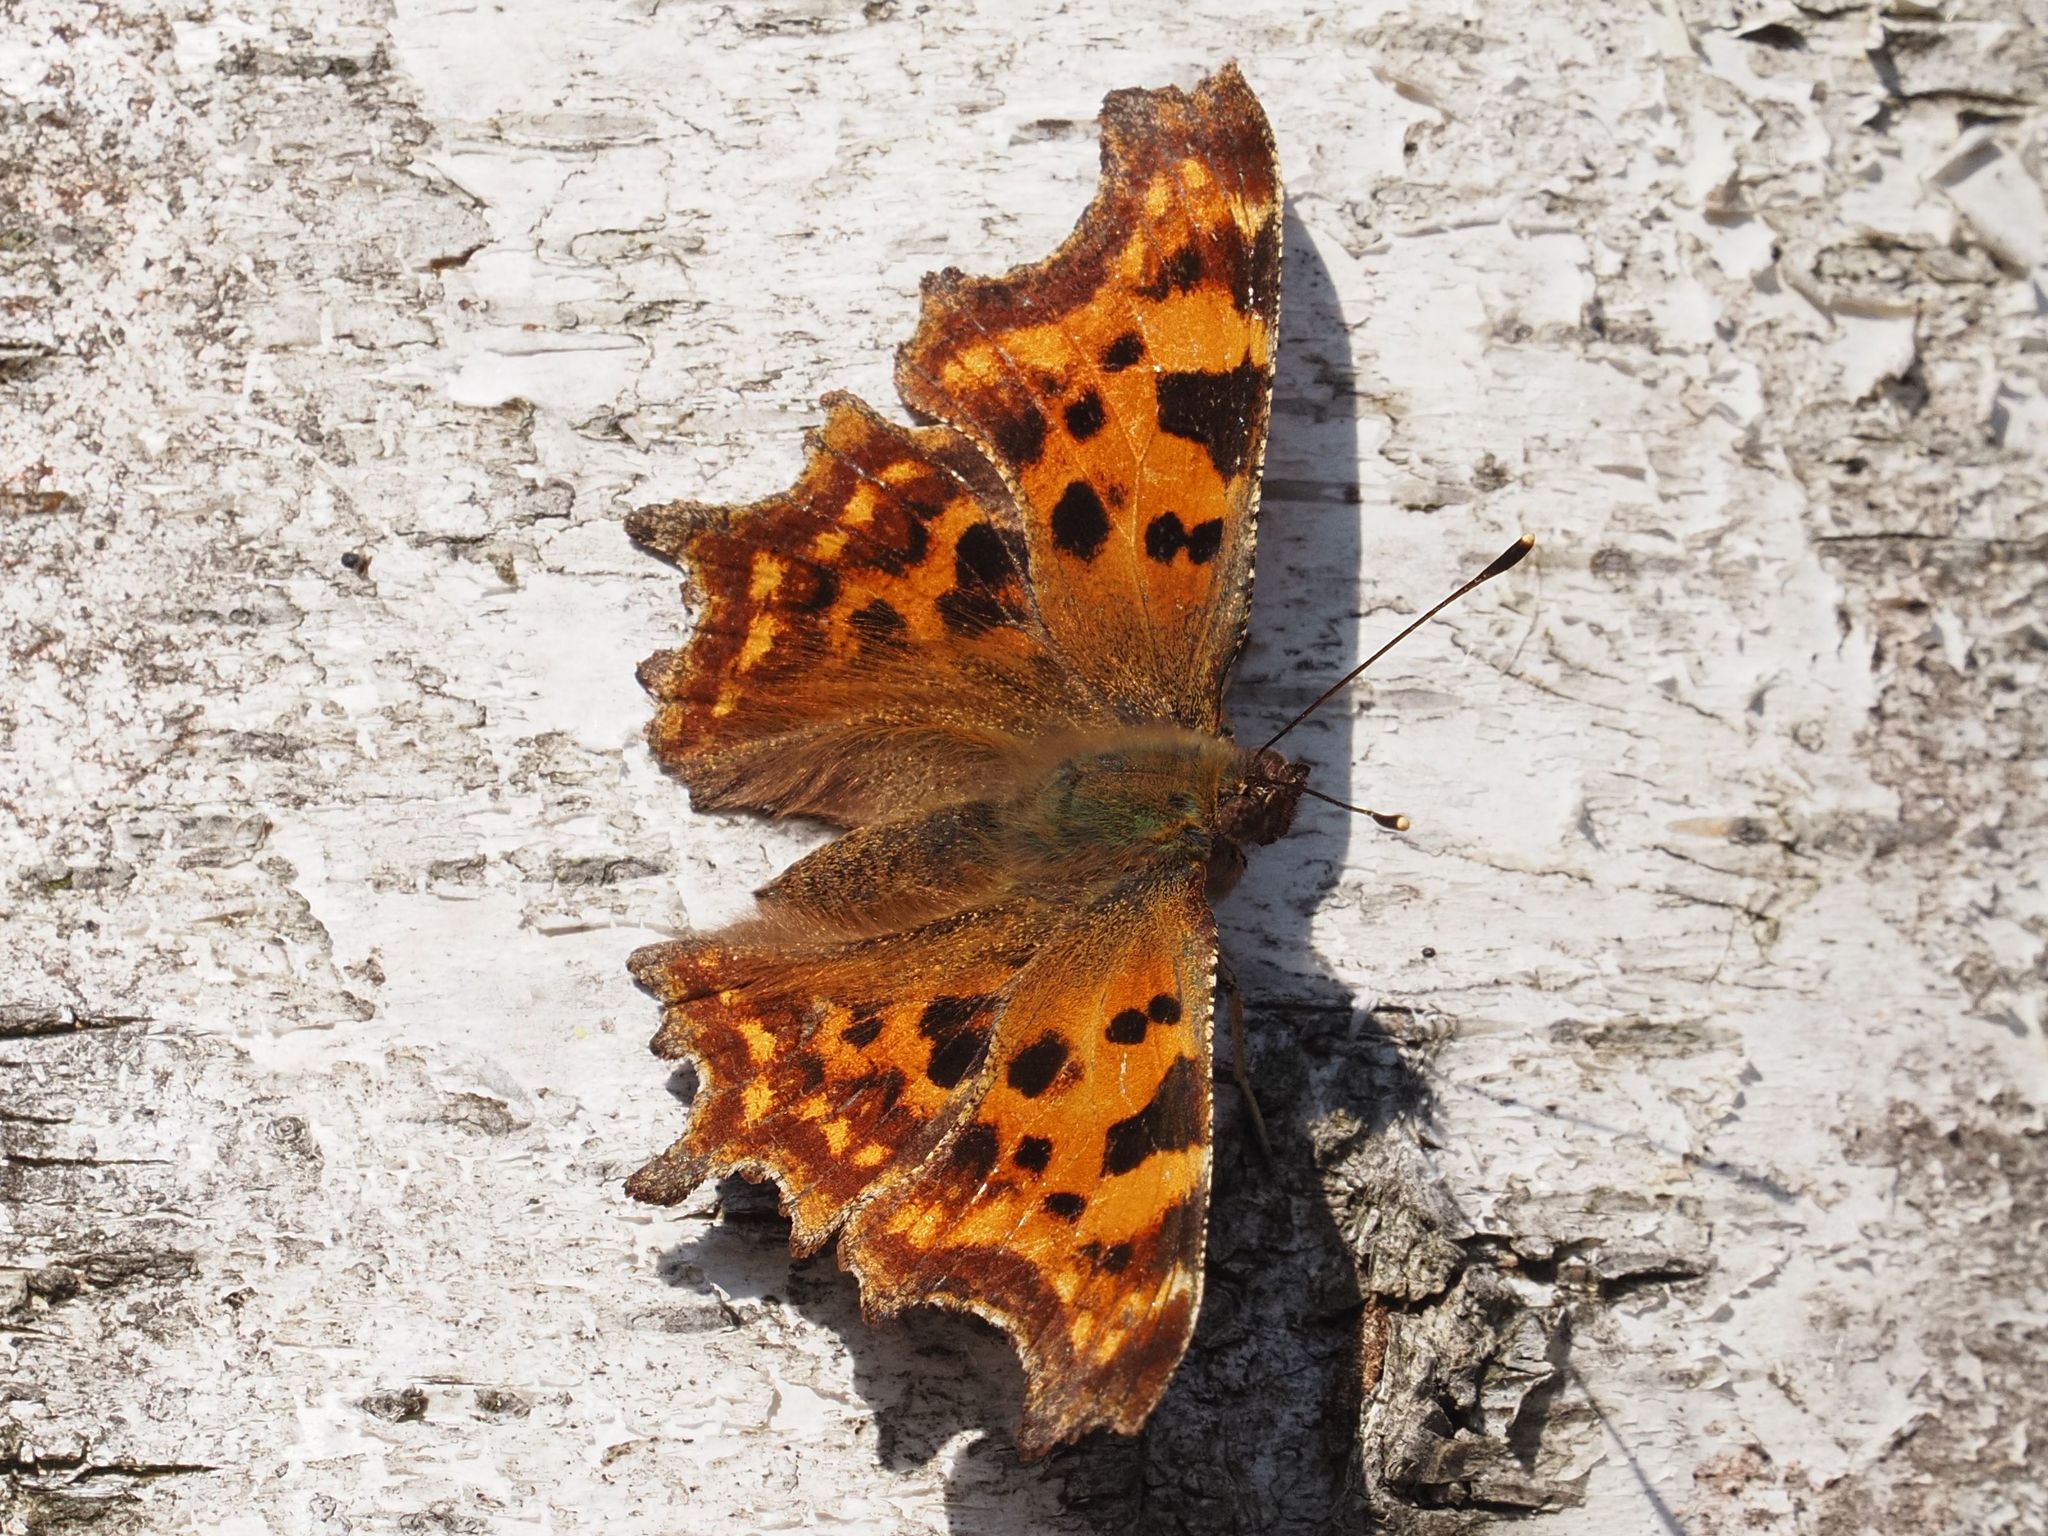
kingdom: Animalia
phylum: Arthropoda
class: Insecta
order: Lepidoptera
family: Nymphalidae
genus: Polygonia
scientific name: Polygonia c-album
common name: Comma
